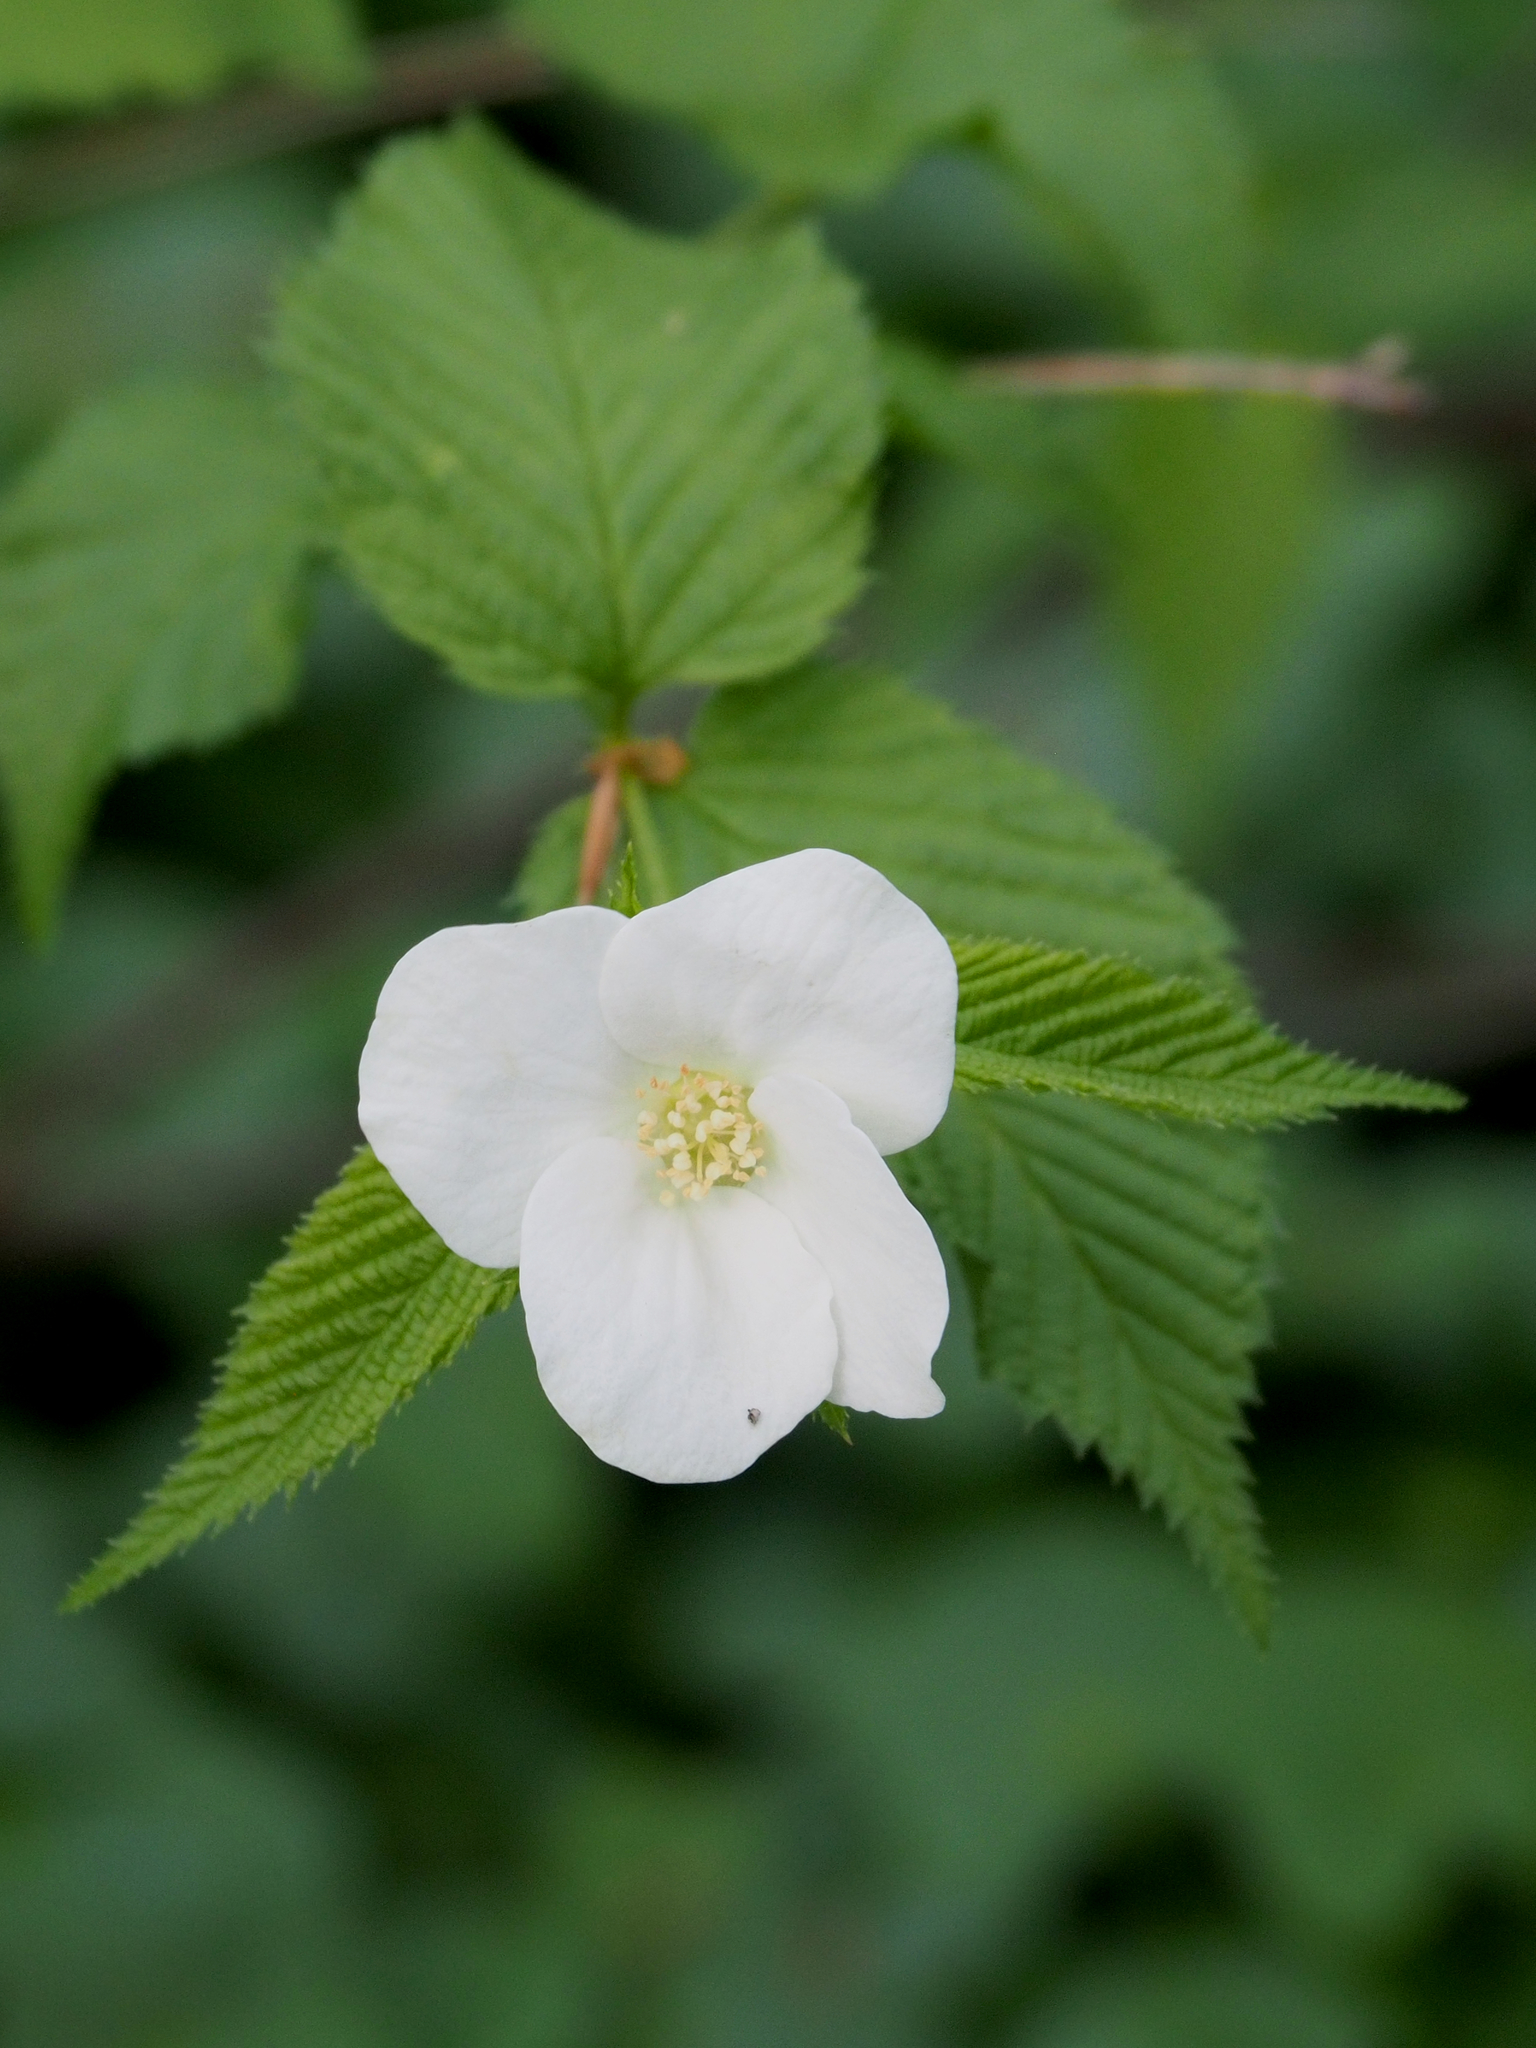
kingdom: Plantae
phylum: Tracheophyta
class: Magnoliopsida
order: Rosales
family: Rosaceae
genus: Rhodotypos
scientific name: Rhodotypos scandens
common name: Jetbead
